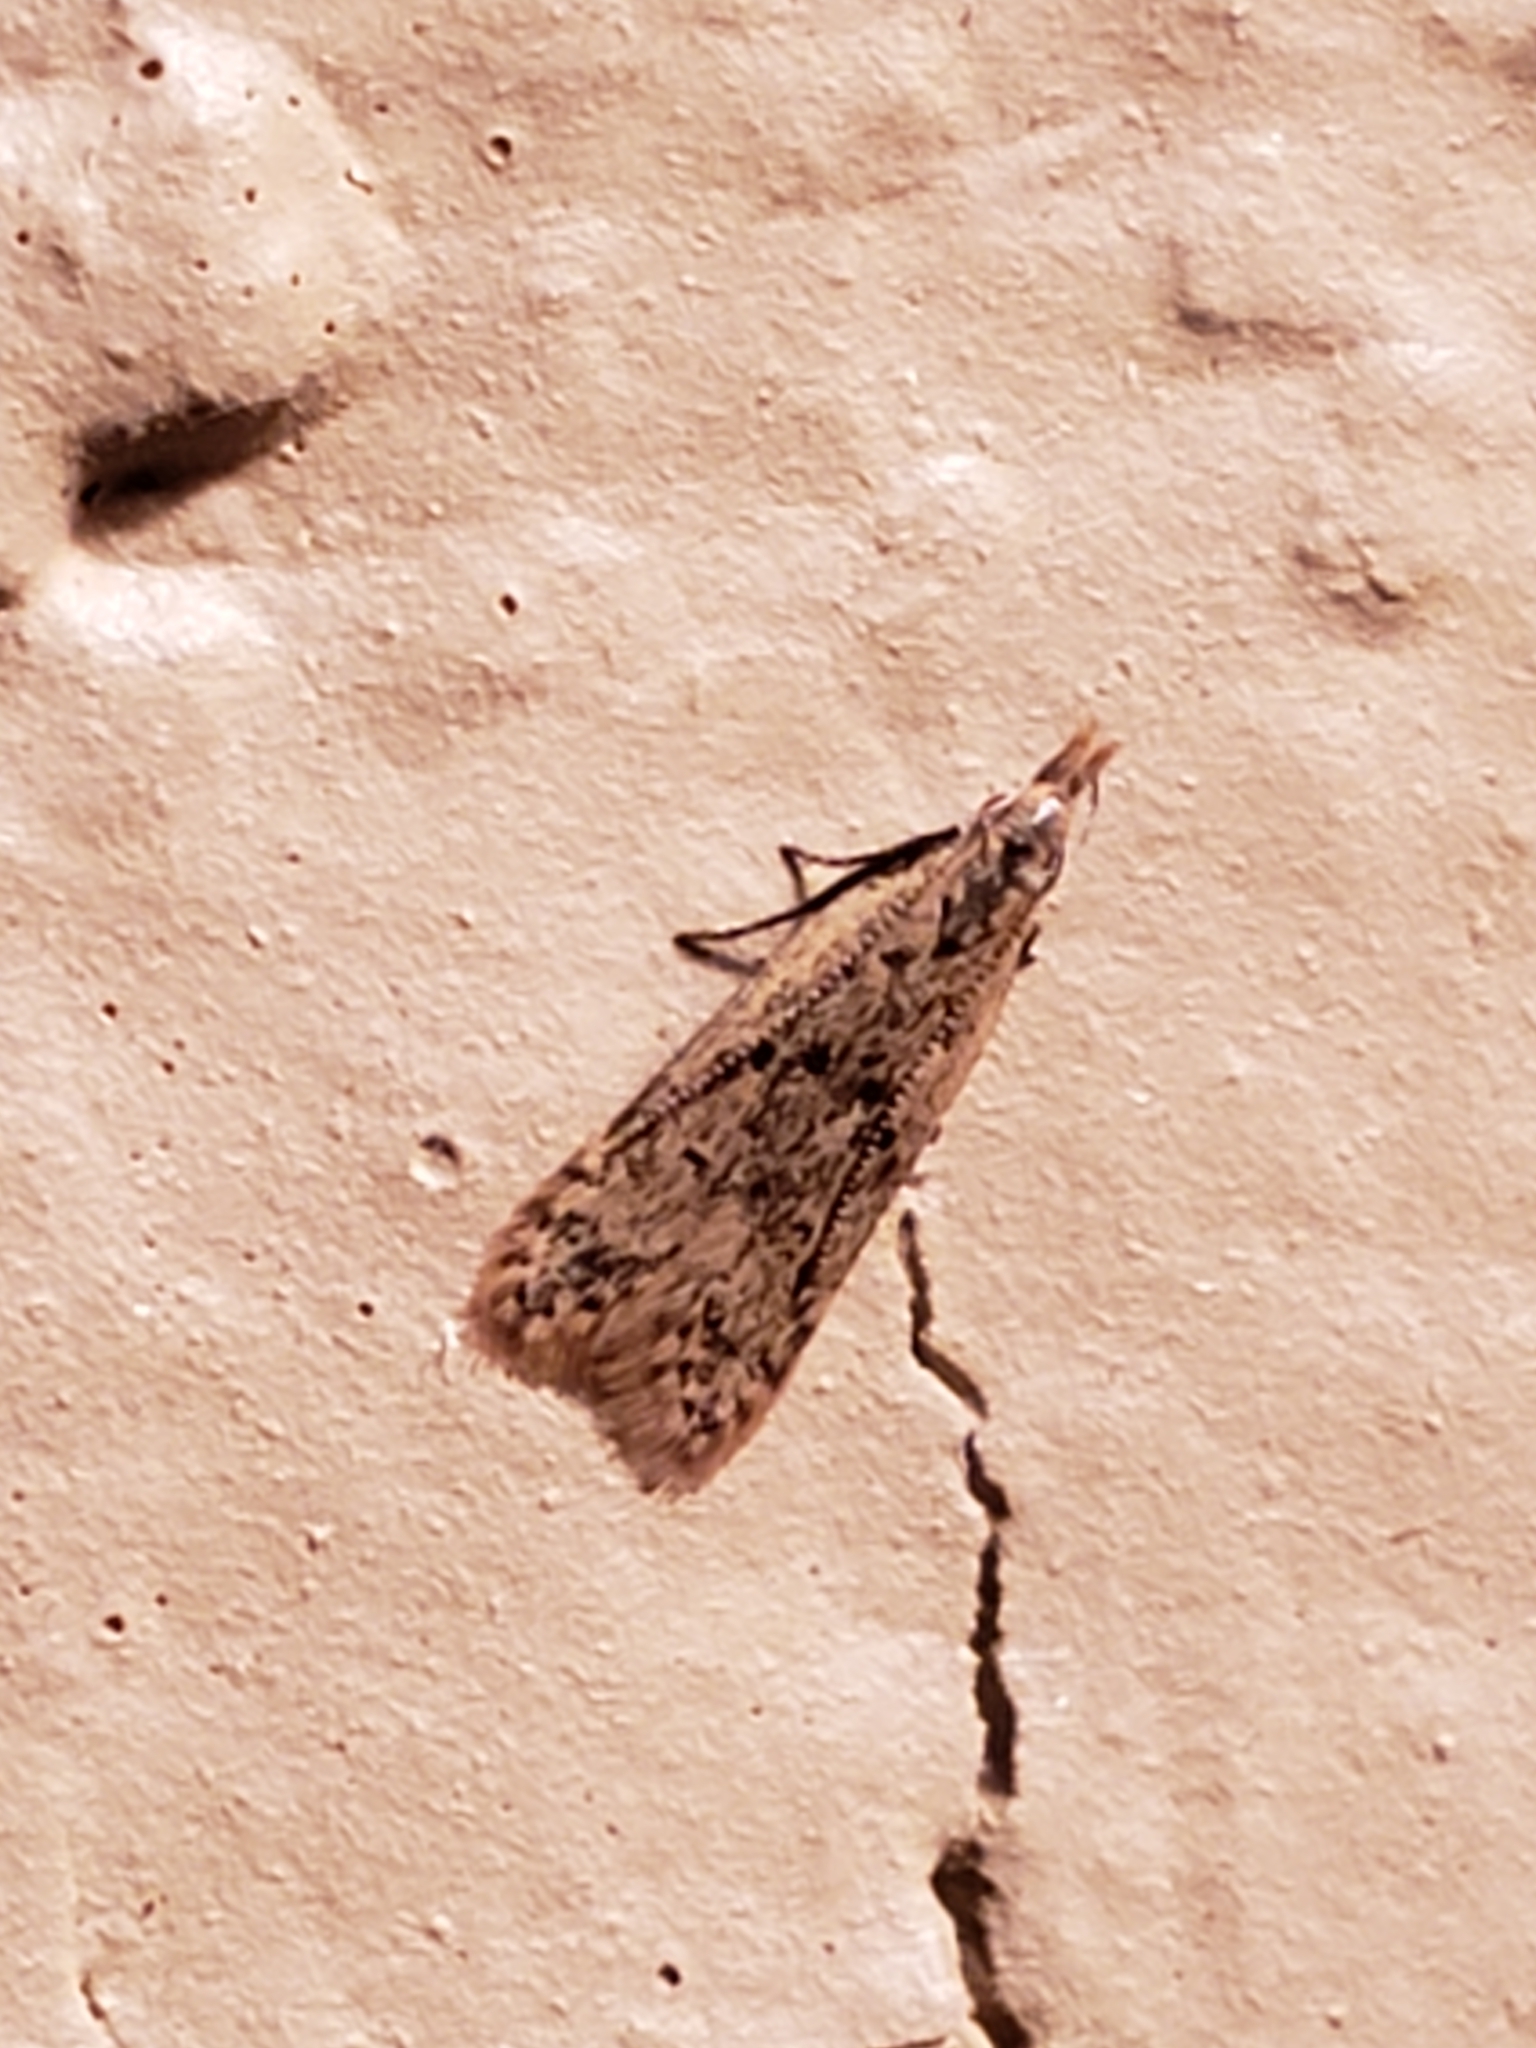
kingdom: Animalia
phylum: Arthropoda
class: Insecta
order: Lepidoptera
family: Gelechiidae
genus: Dichomeris
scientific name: Dichomeris punctipennella
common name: Many-spotted dichomeris moth
